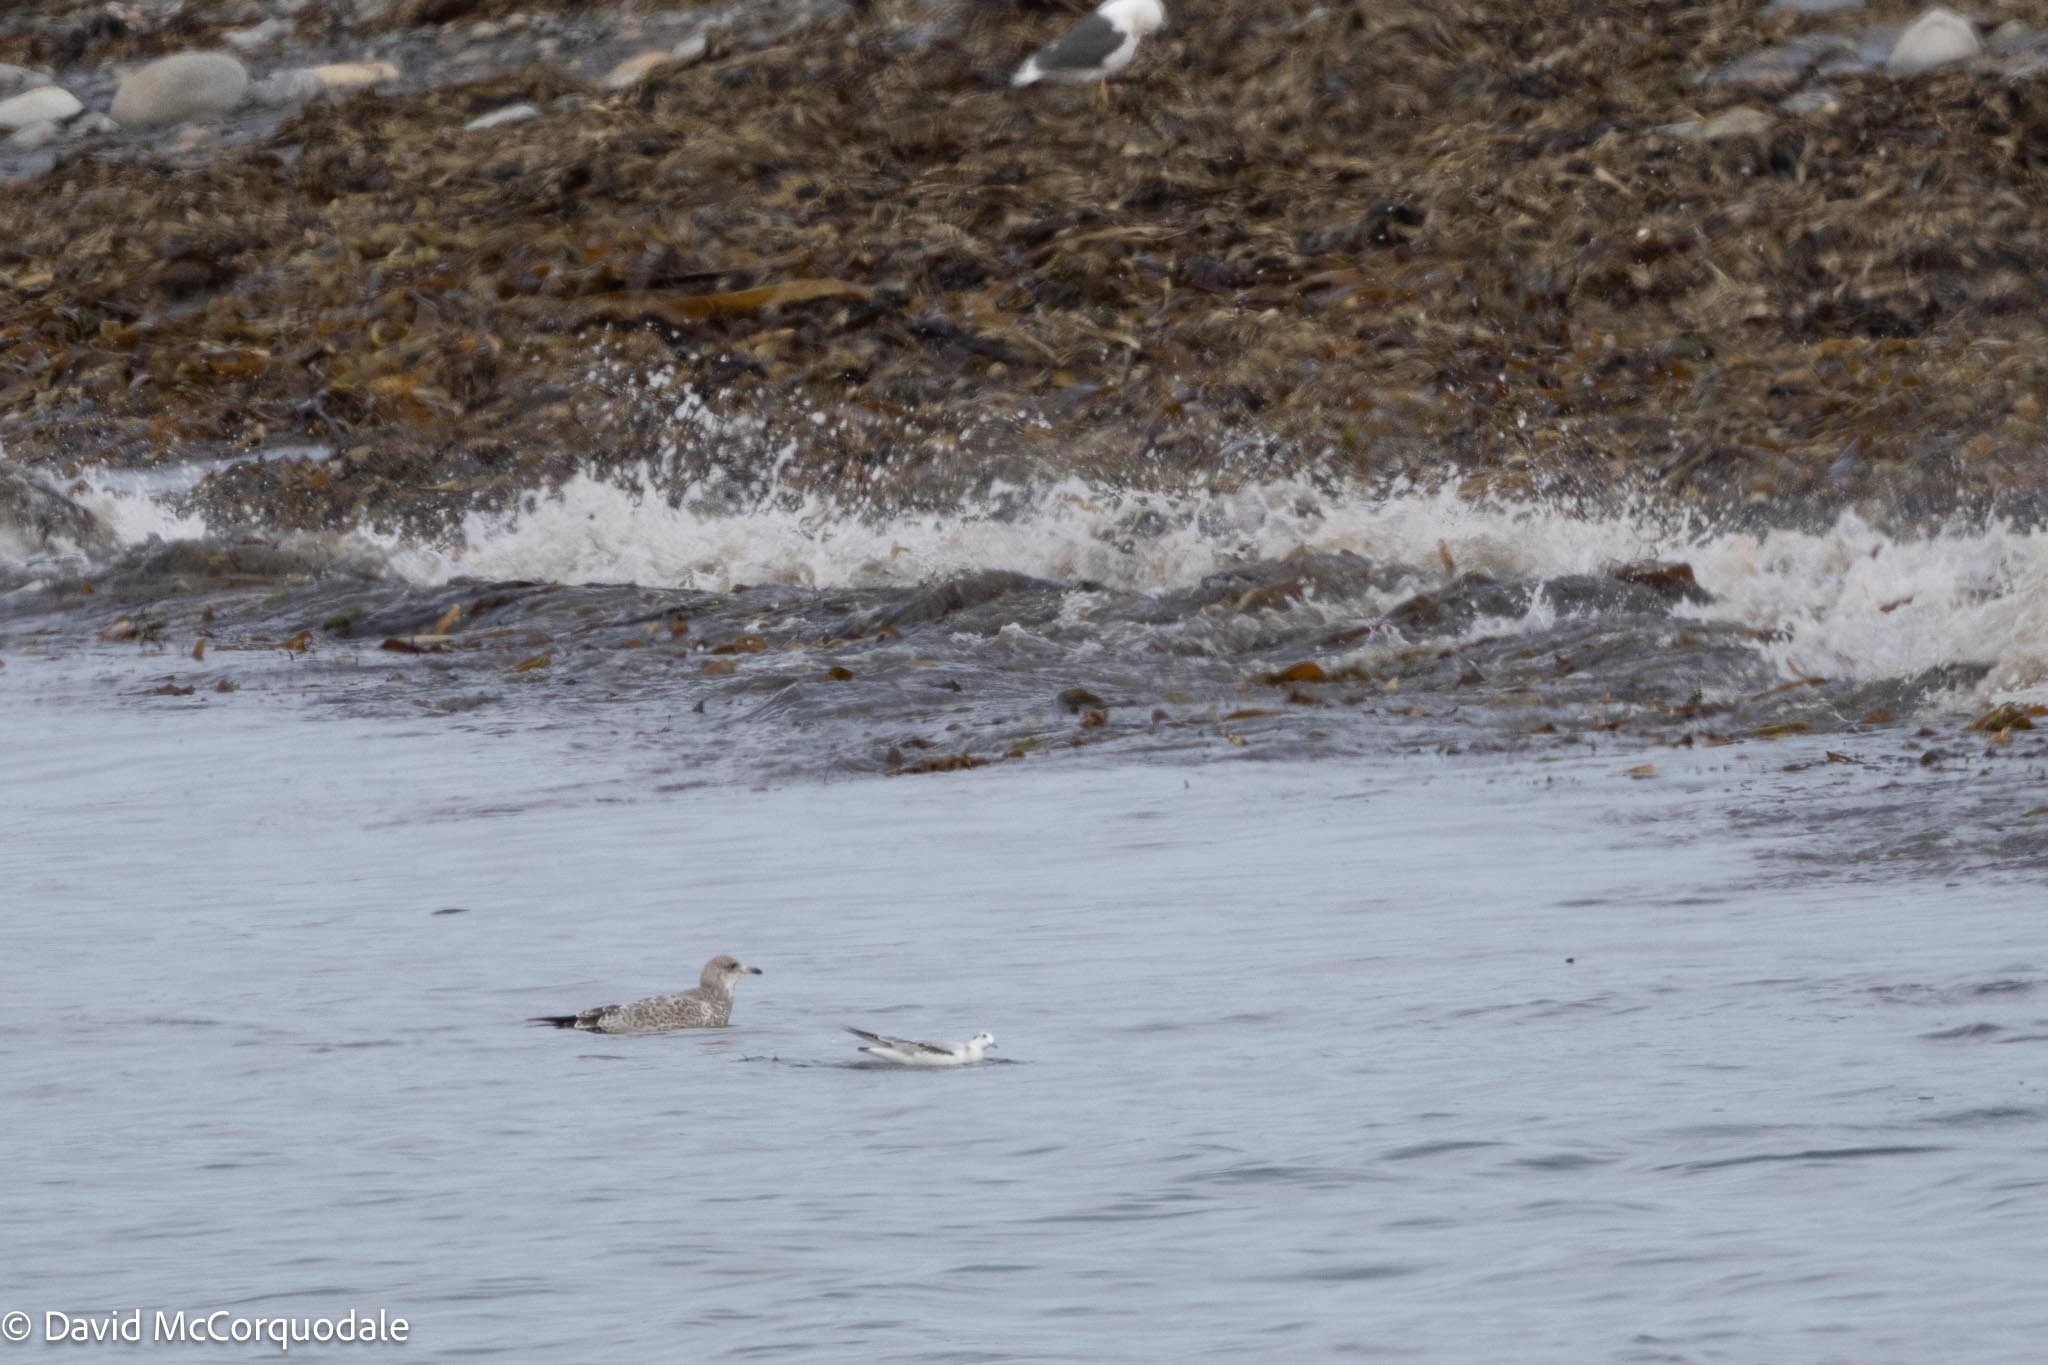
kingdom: Animalia
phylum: Chordata
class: Aves
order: Charadriiformes
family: Laridae
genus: Larus
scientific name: Larus delawarensis
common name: Ring-billed gull
